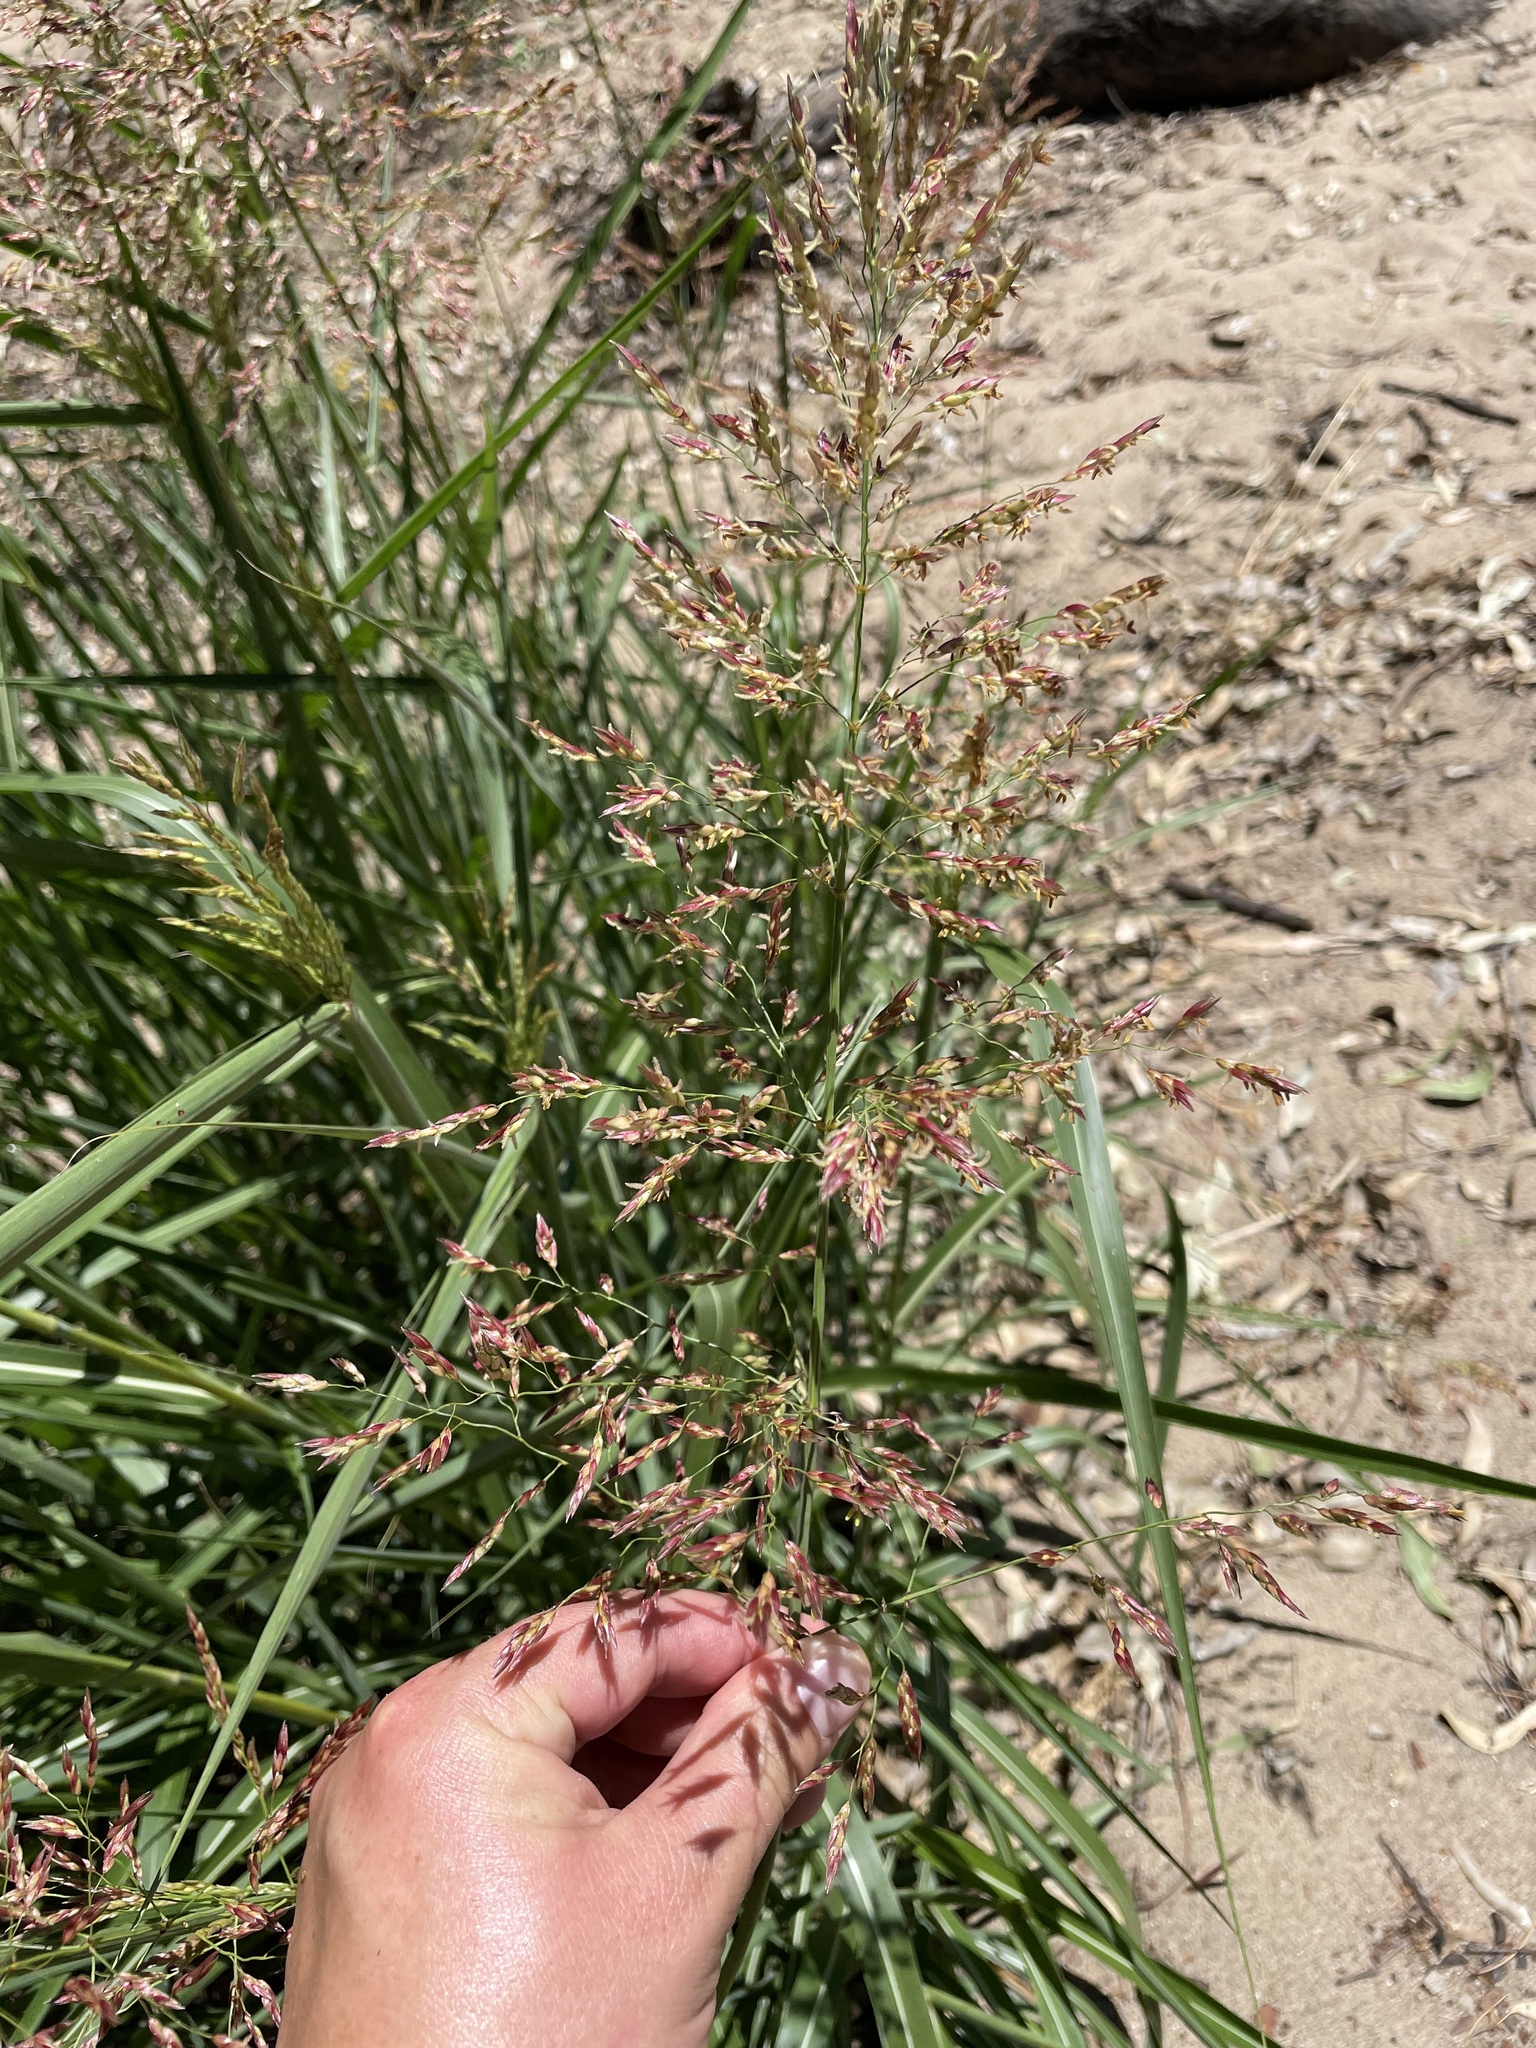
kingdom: Plantae
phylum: Tracheophyta
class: Liliopsida
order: Poales
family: Poaceae
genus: Sorghum
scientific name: Sorghum halepense
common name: Johnson-grass
